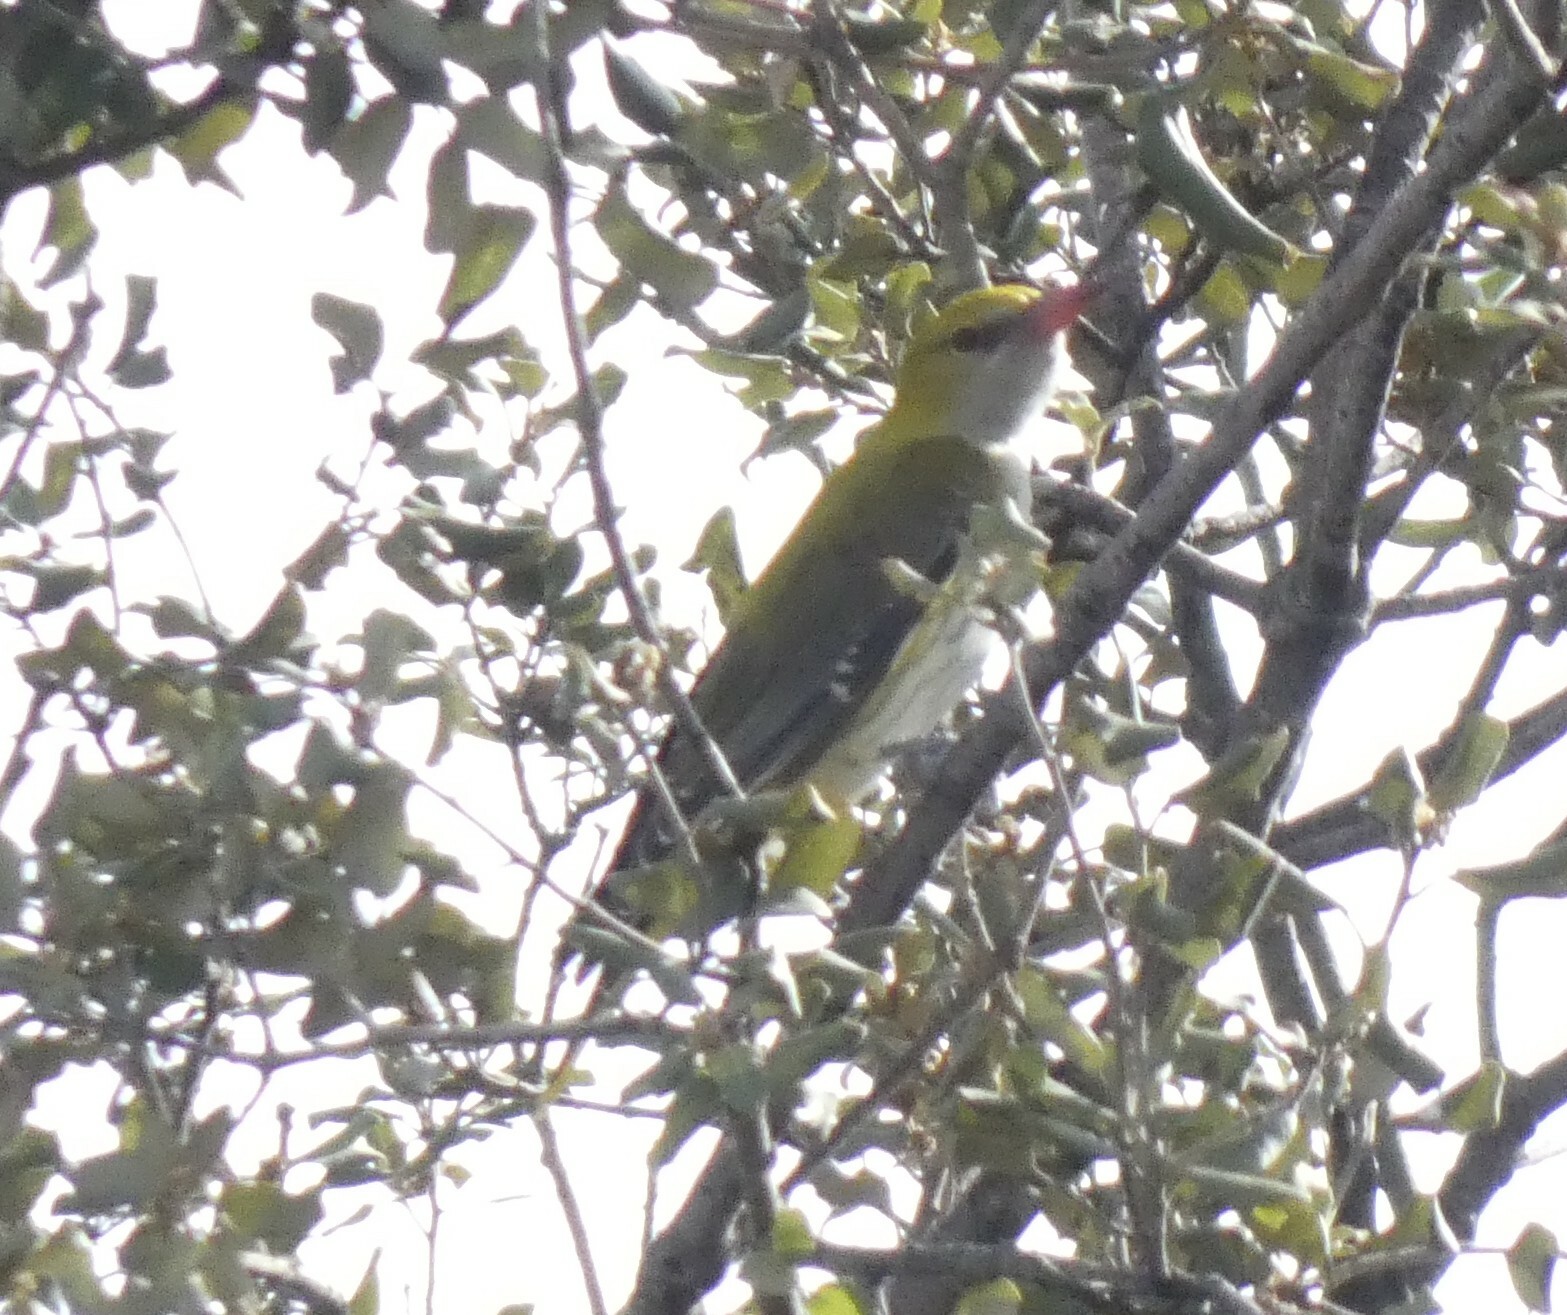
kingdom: Animalia
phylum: Chordata
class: Aves
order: Passeriformes
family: Oriolidae
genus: Oriolus
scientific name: Oriolus oriolus
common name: Eurasian golden oriole
